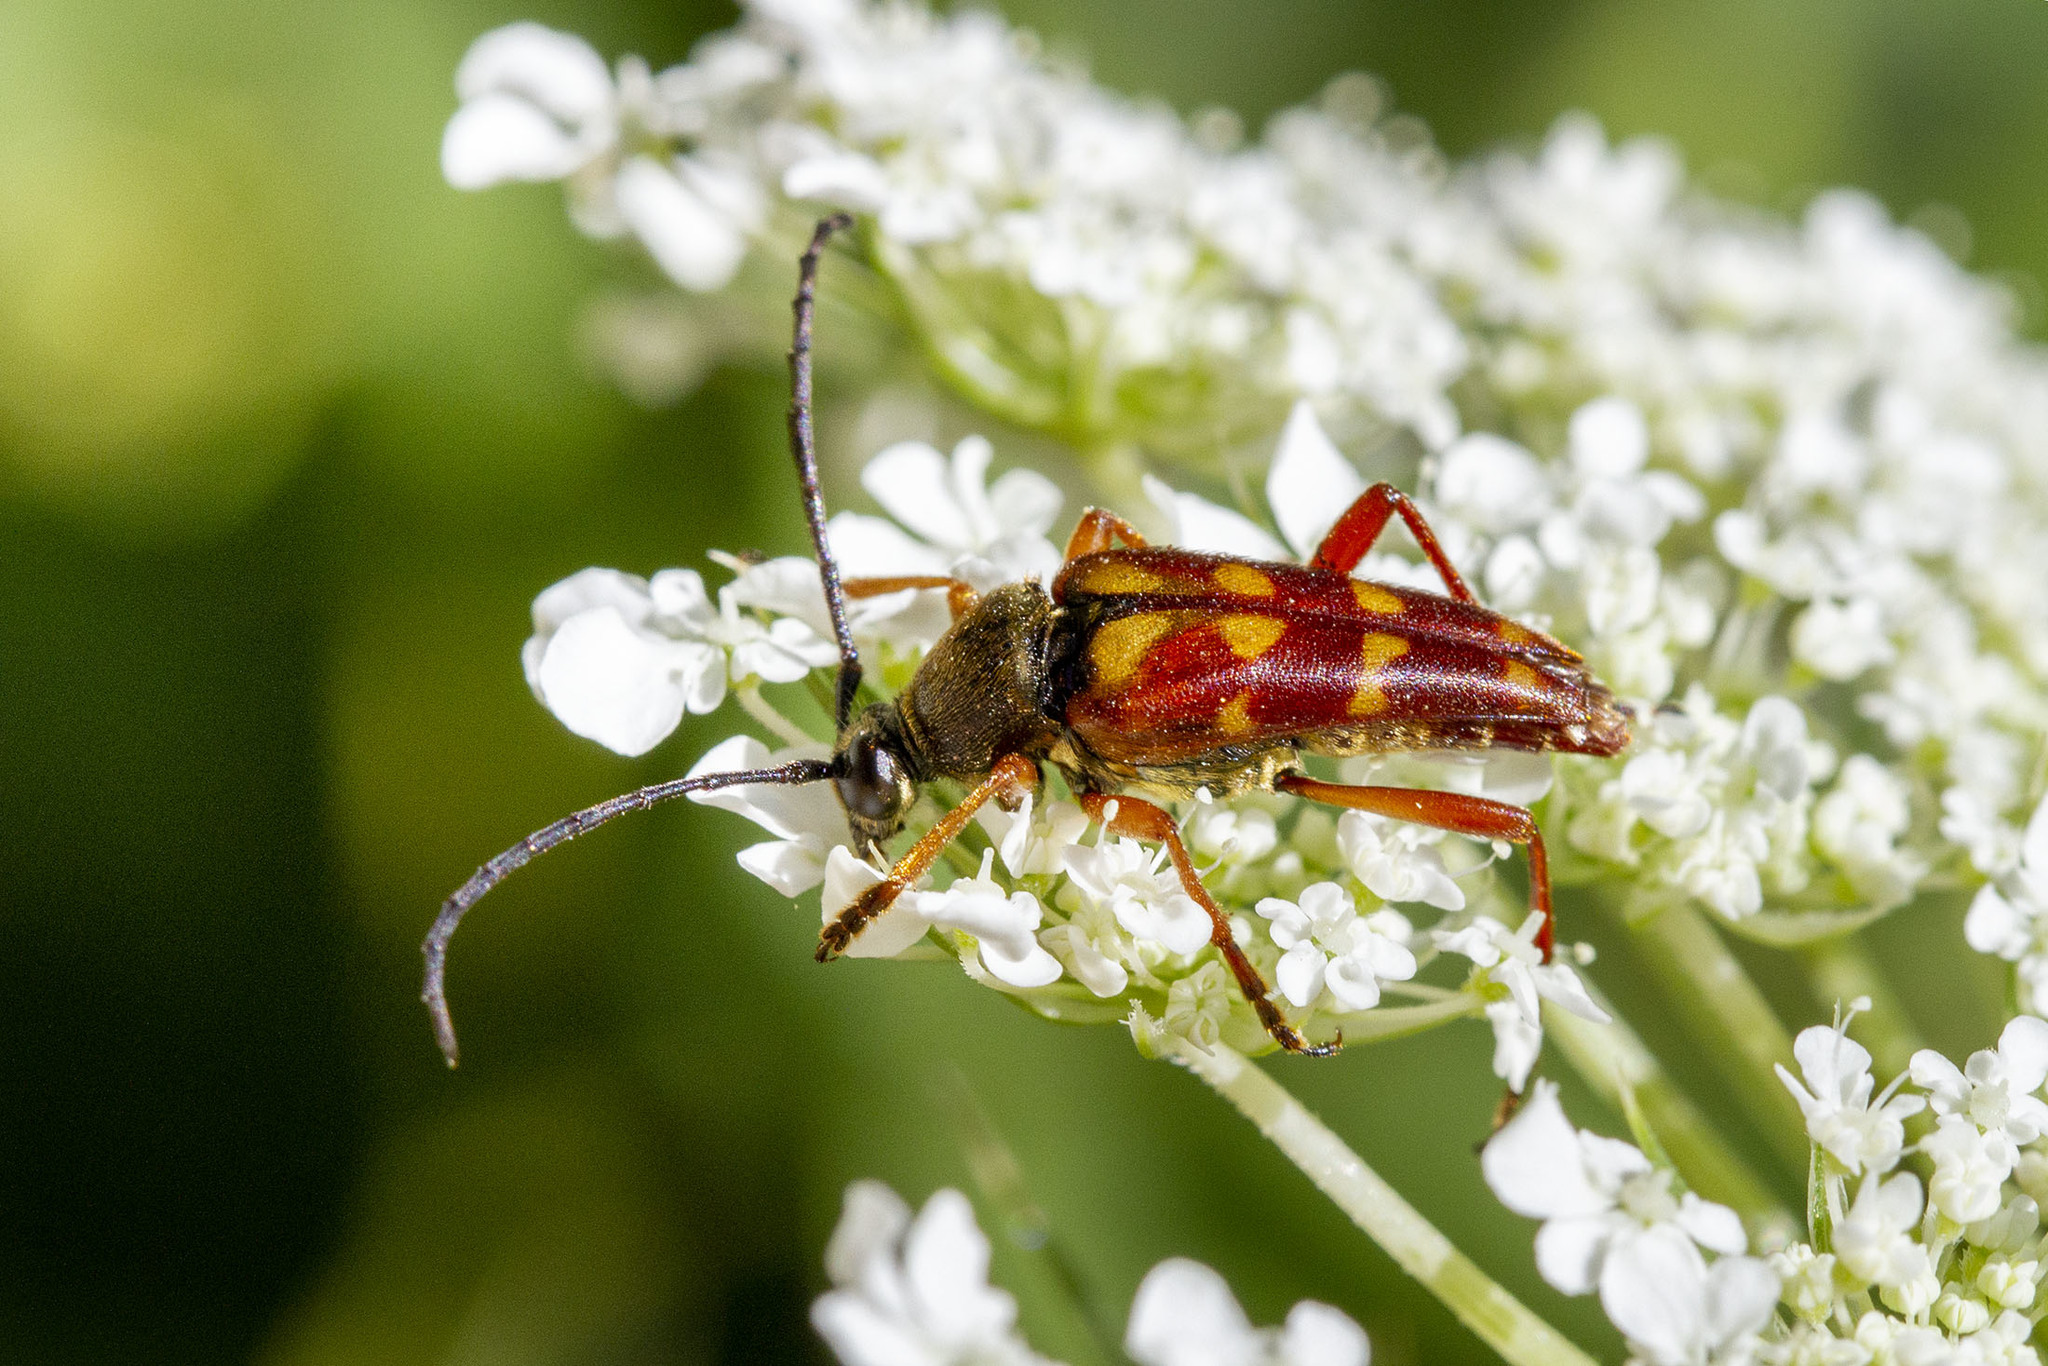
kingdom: Animalia
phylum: Arthropoda
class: Insecta
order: Coleoptera
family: Cerambycidae
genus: Typocerus
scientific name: Typocerus velutinus
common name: Banded longhorn beetle
